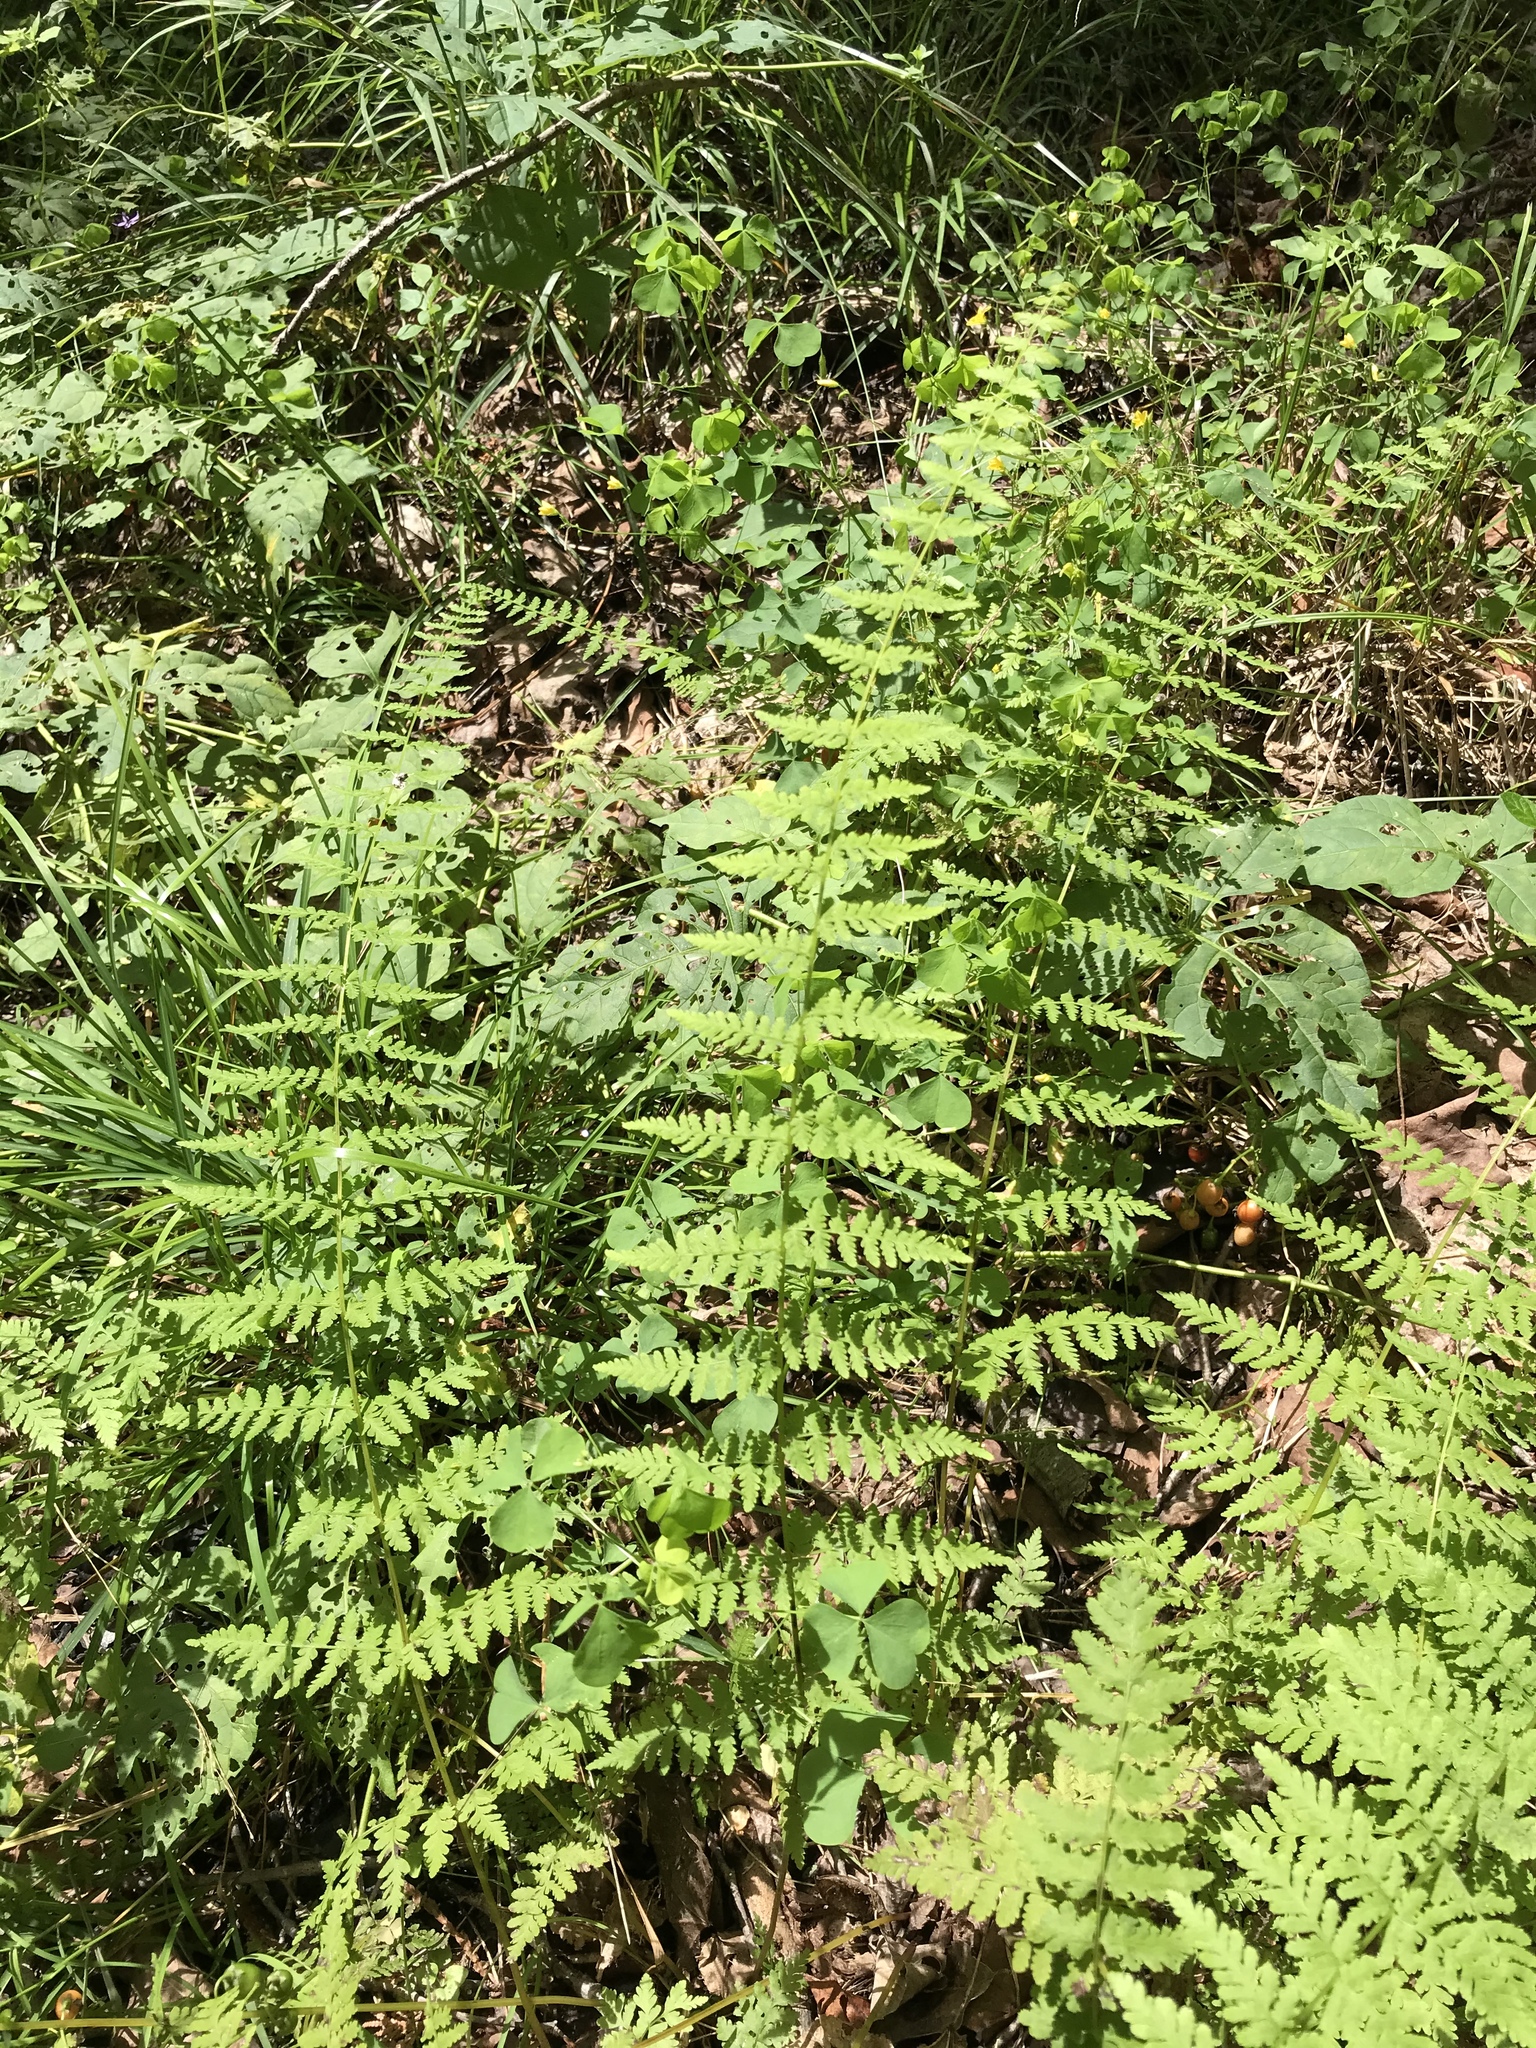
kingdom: Plantae
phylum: Tracheophyta
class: Polypodiopsida
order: Polypodiales
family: Cystopteridaceae
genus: Cystopteris
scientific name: Cystopteris bulbifera
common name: Bulblet bladder fern
